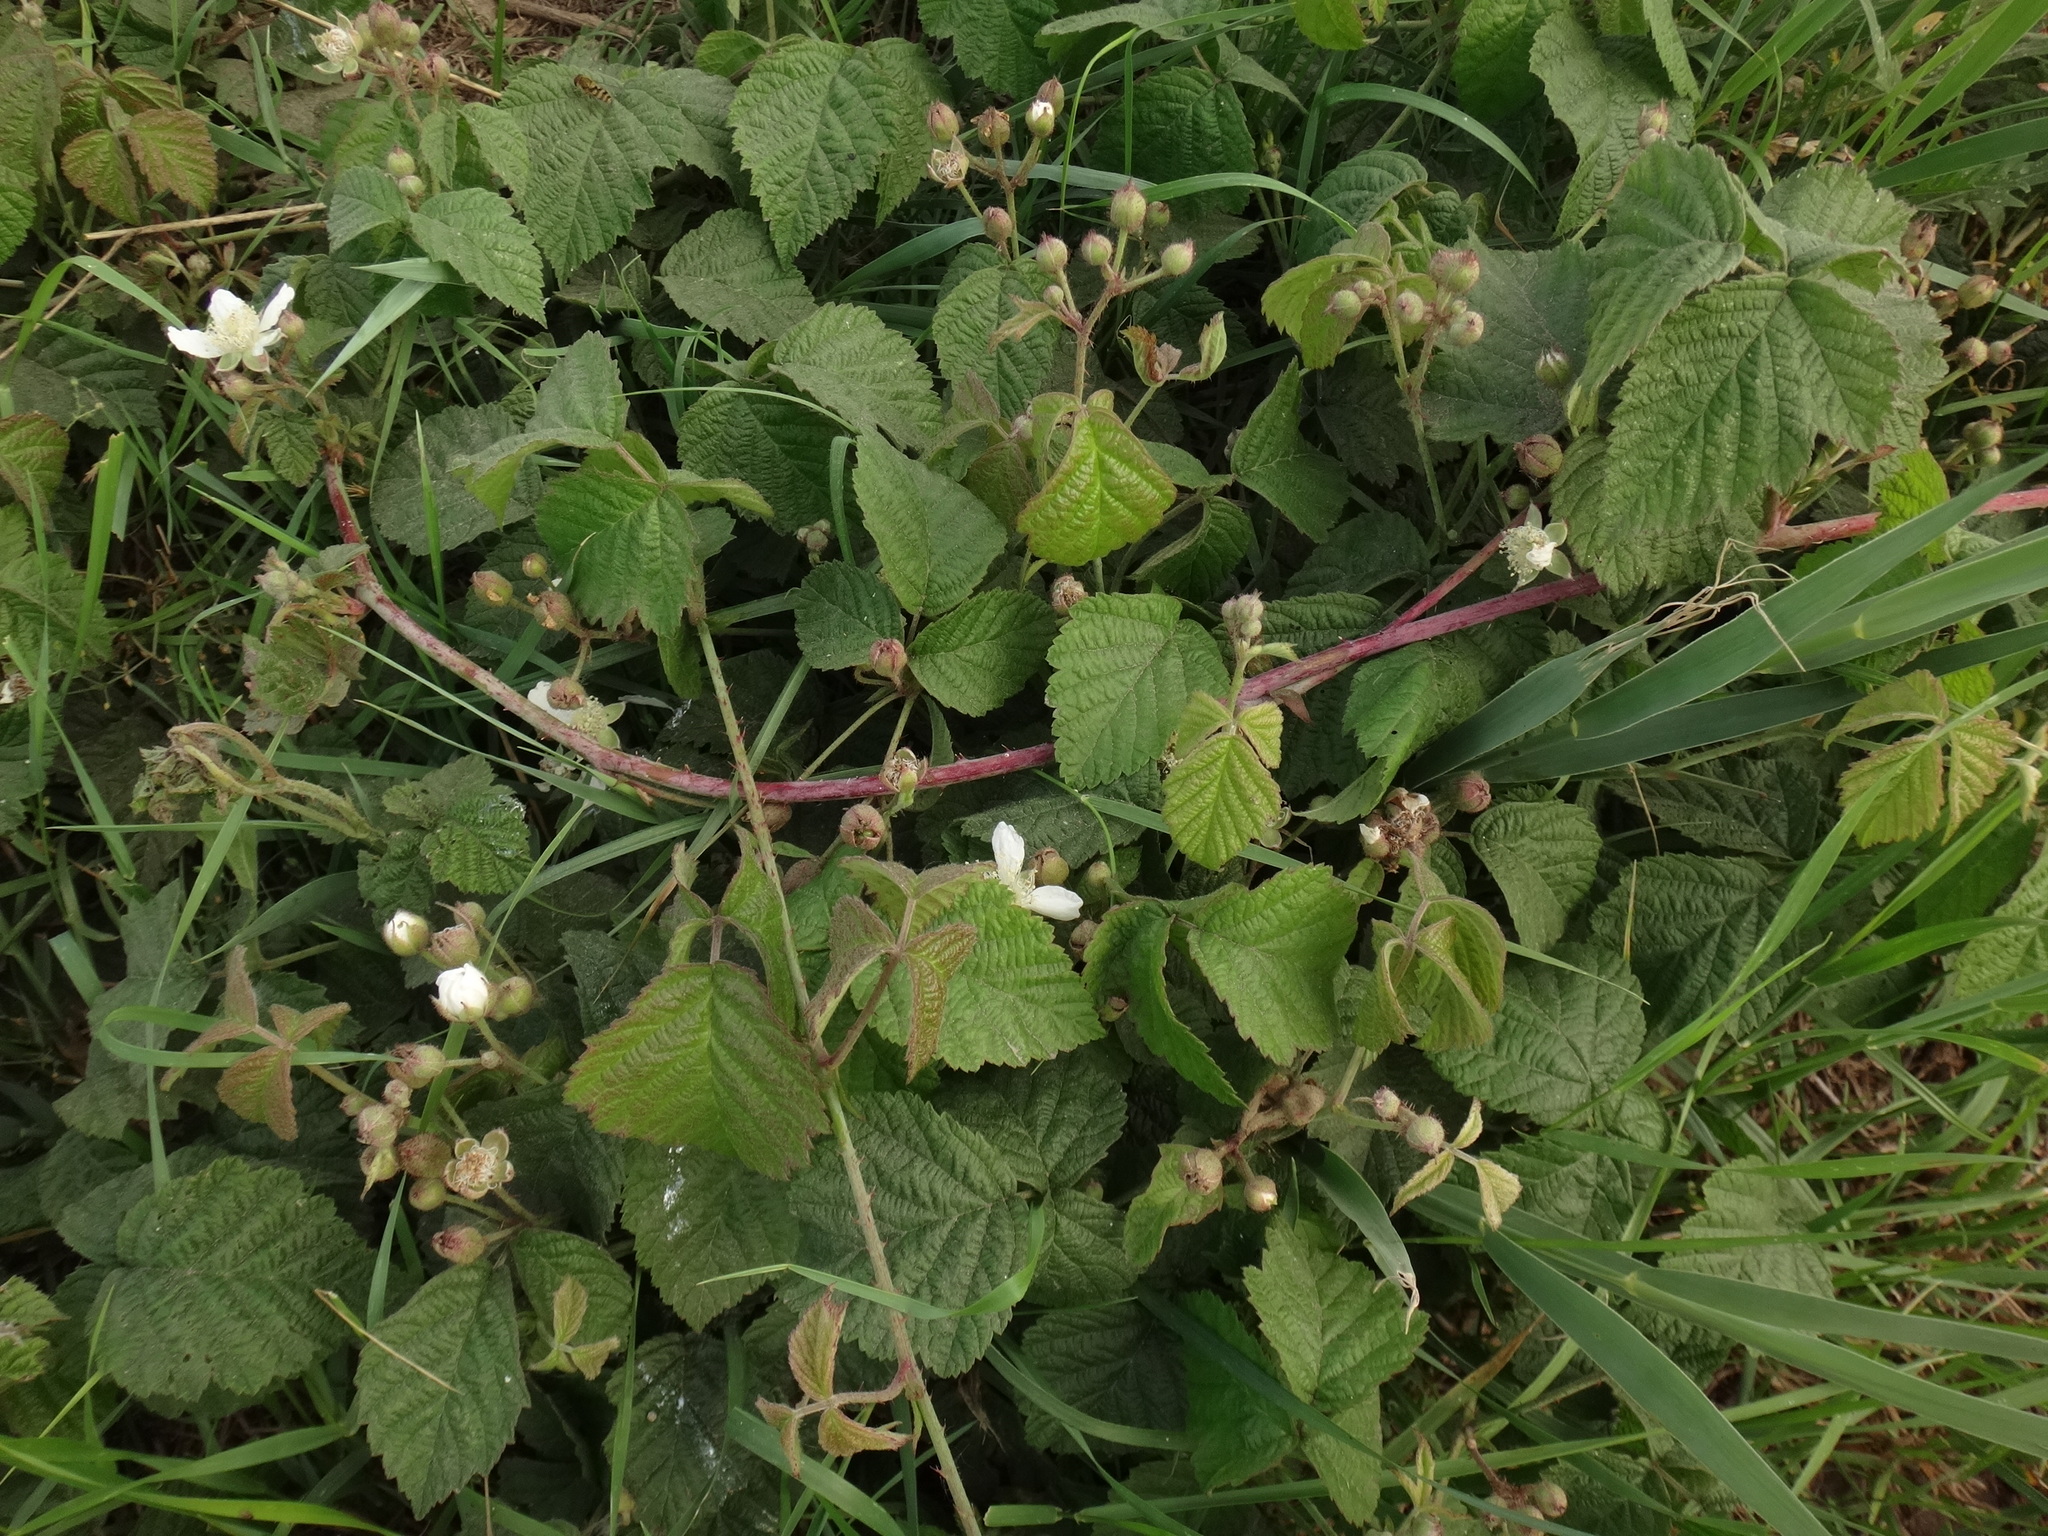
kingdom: Plantae
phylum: Tracheophyta
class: Magnoliopsida
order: Rosales
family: Rosaceae
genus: Rubus
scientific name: Rubus caesius
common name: Dewberry
